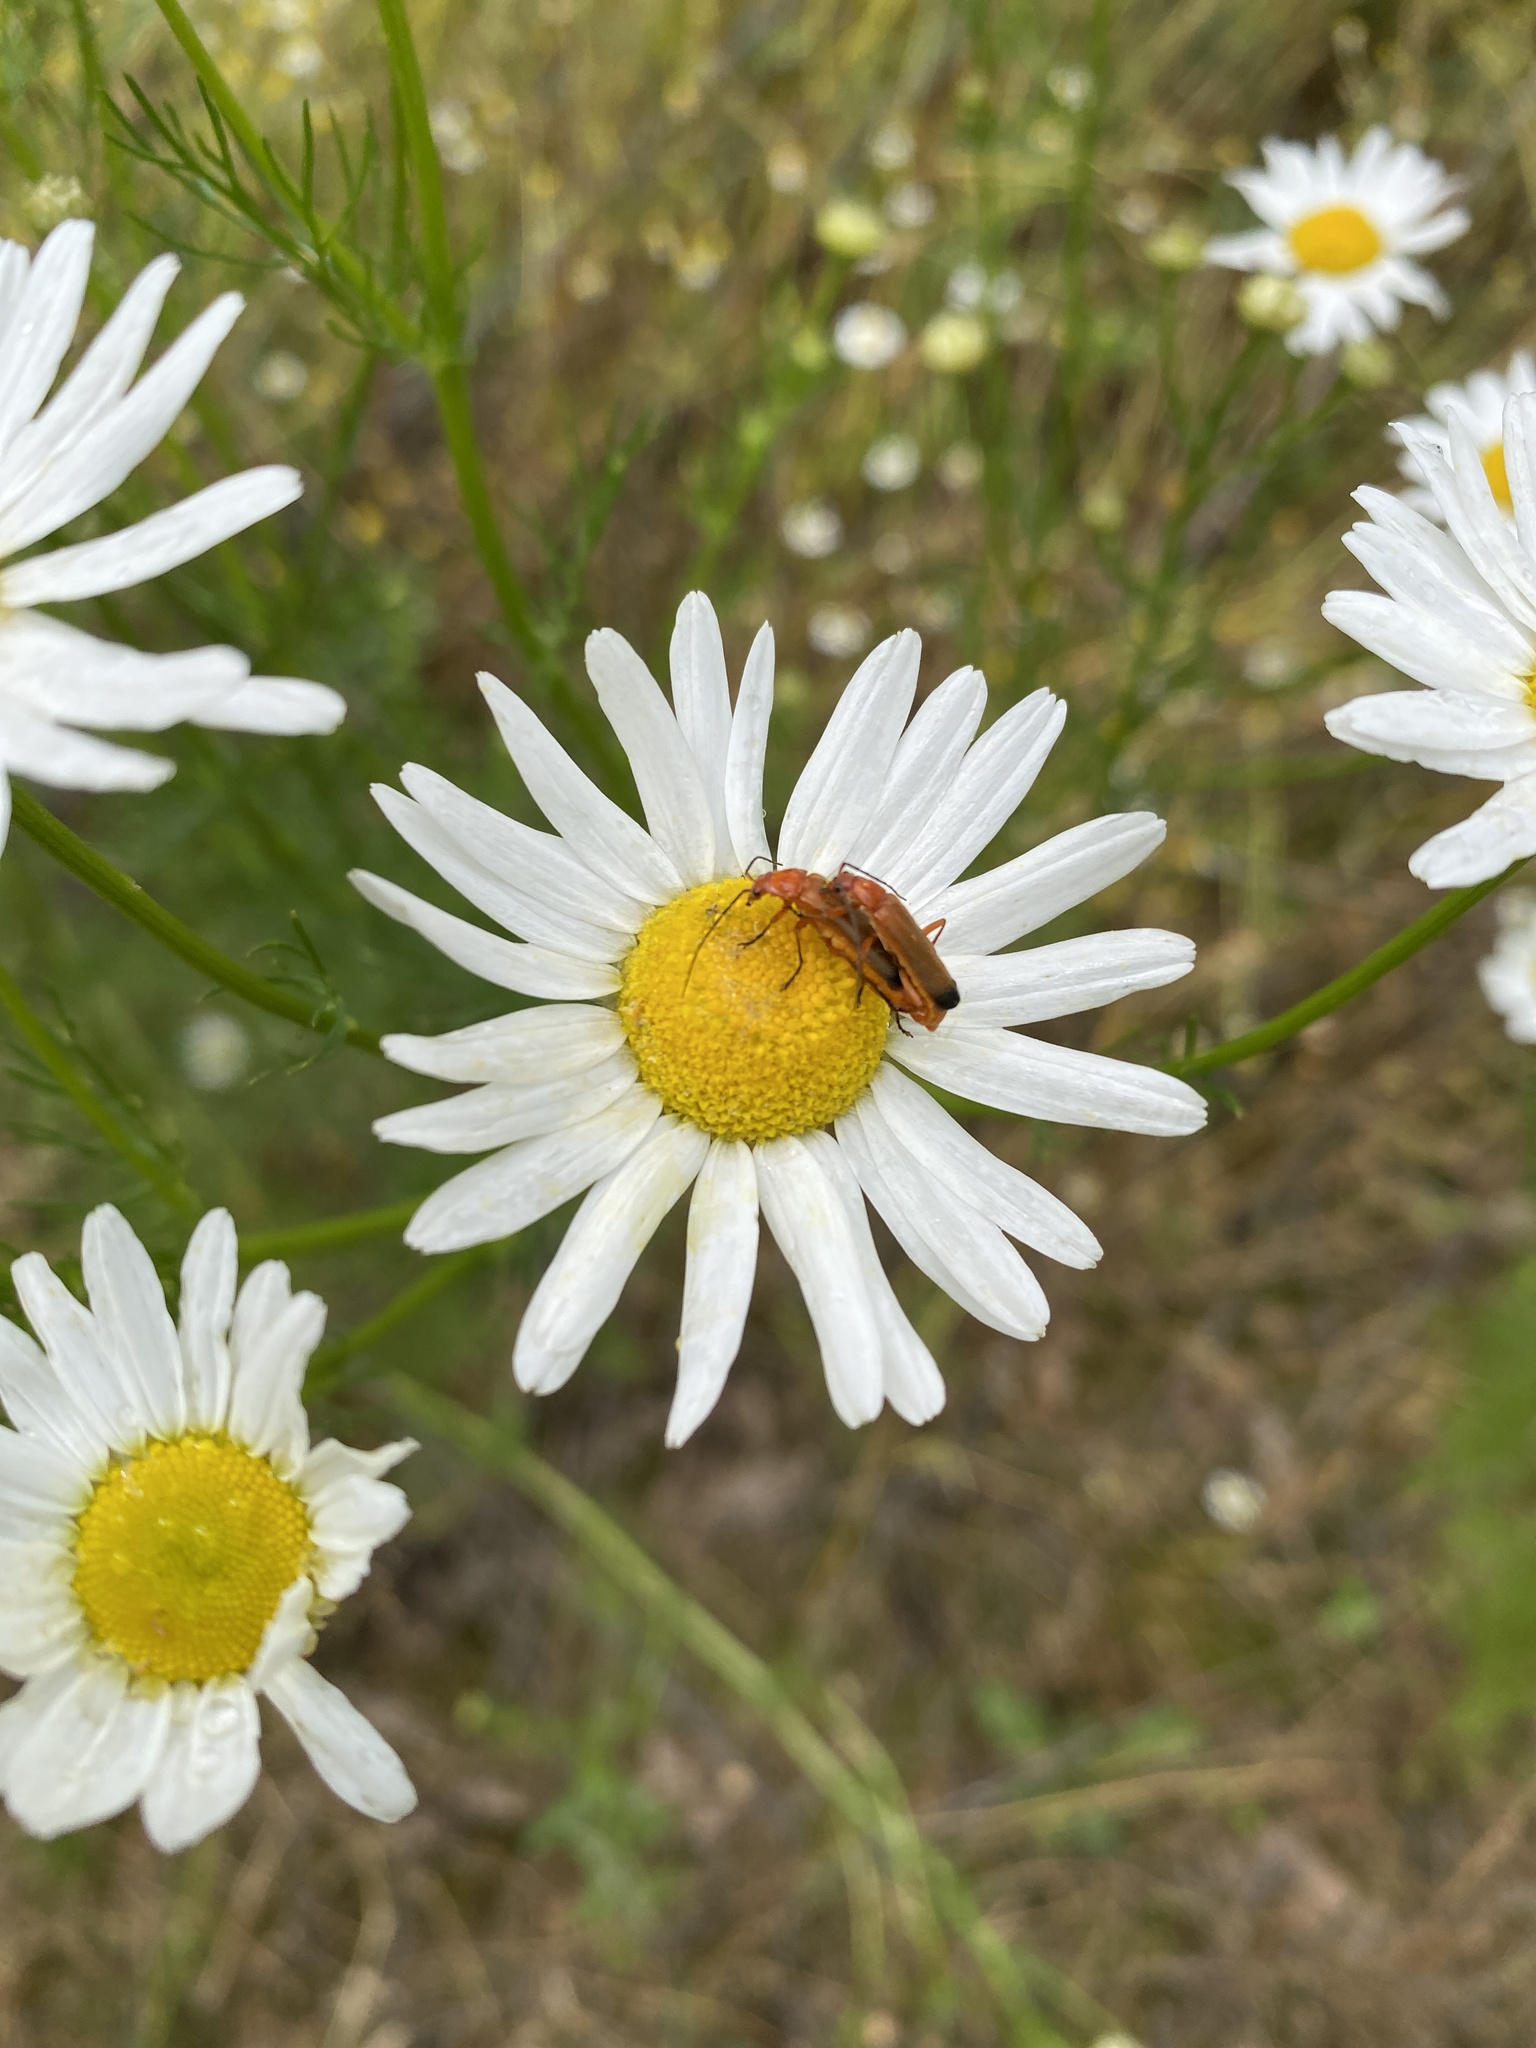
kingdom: Animalia
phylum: Arthropoda
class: Insecta
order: Coleoptera
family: Cantharidae
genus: Rhagonycha
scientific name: Rhagonycha fulva
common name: Common red soldier beetle
